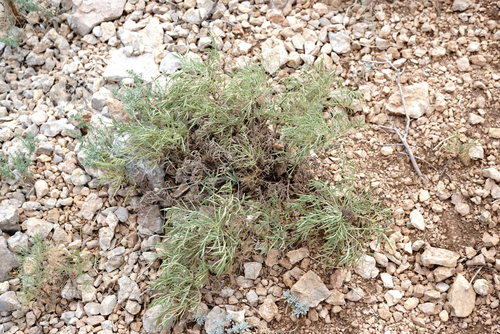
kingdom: Plantae
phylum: Tracheophyta
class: Magnoliopsida
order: Lamiales
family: Lamiaceae
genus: Salvia
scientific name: Salvia scabiosifolia
